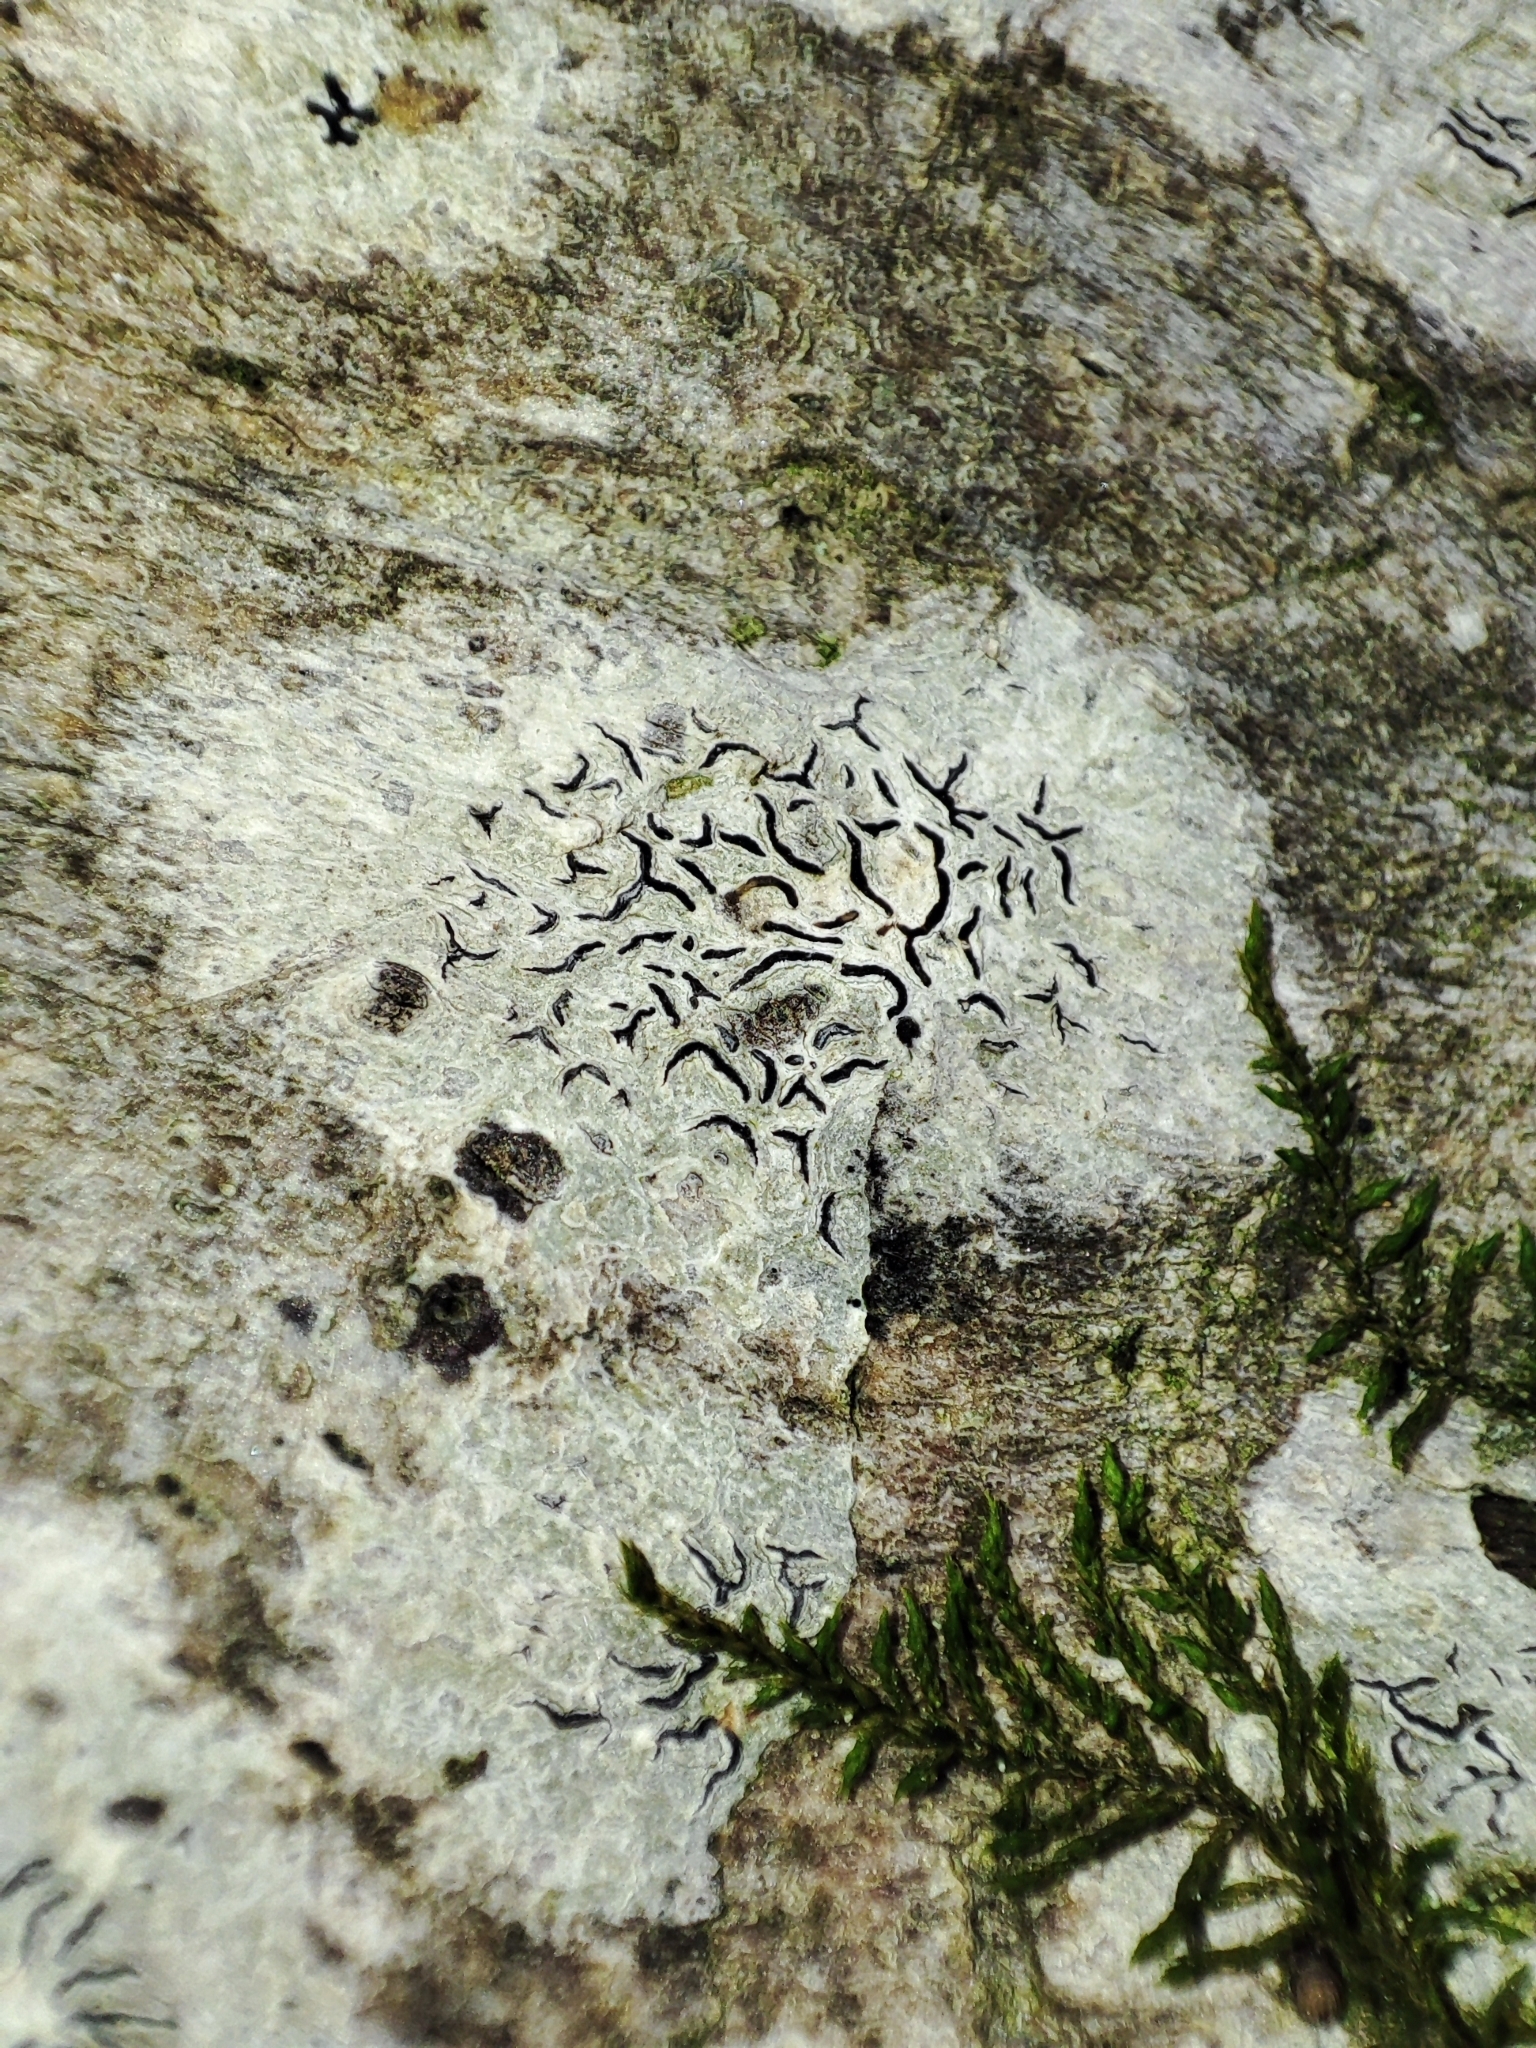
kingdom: Fungi
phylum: Ascomycota
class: Lecanoromycetes
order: Ostropales
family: Graphidaceae
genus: Graphis
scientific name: Graphis scripta
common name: Script lichen
